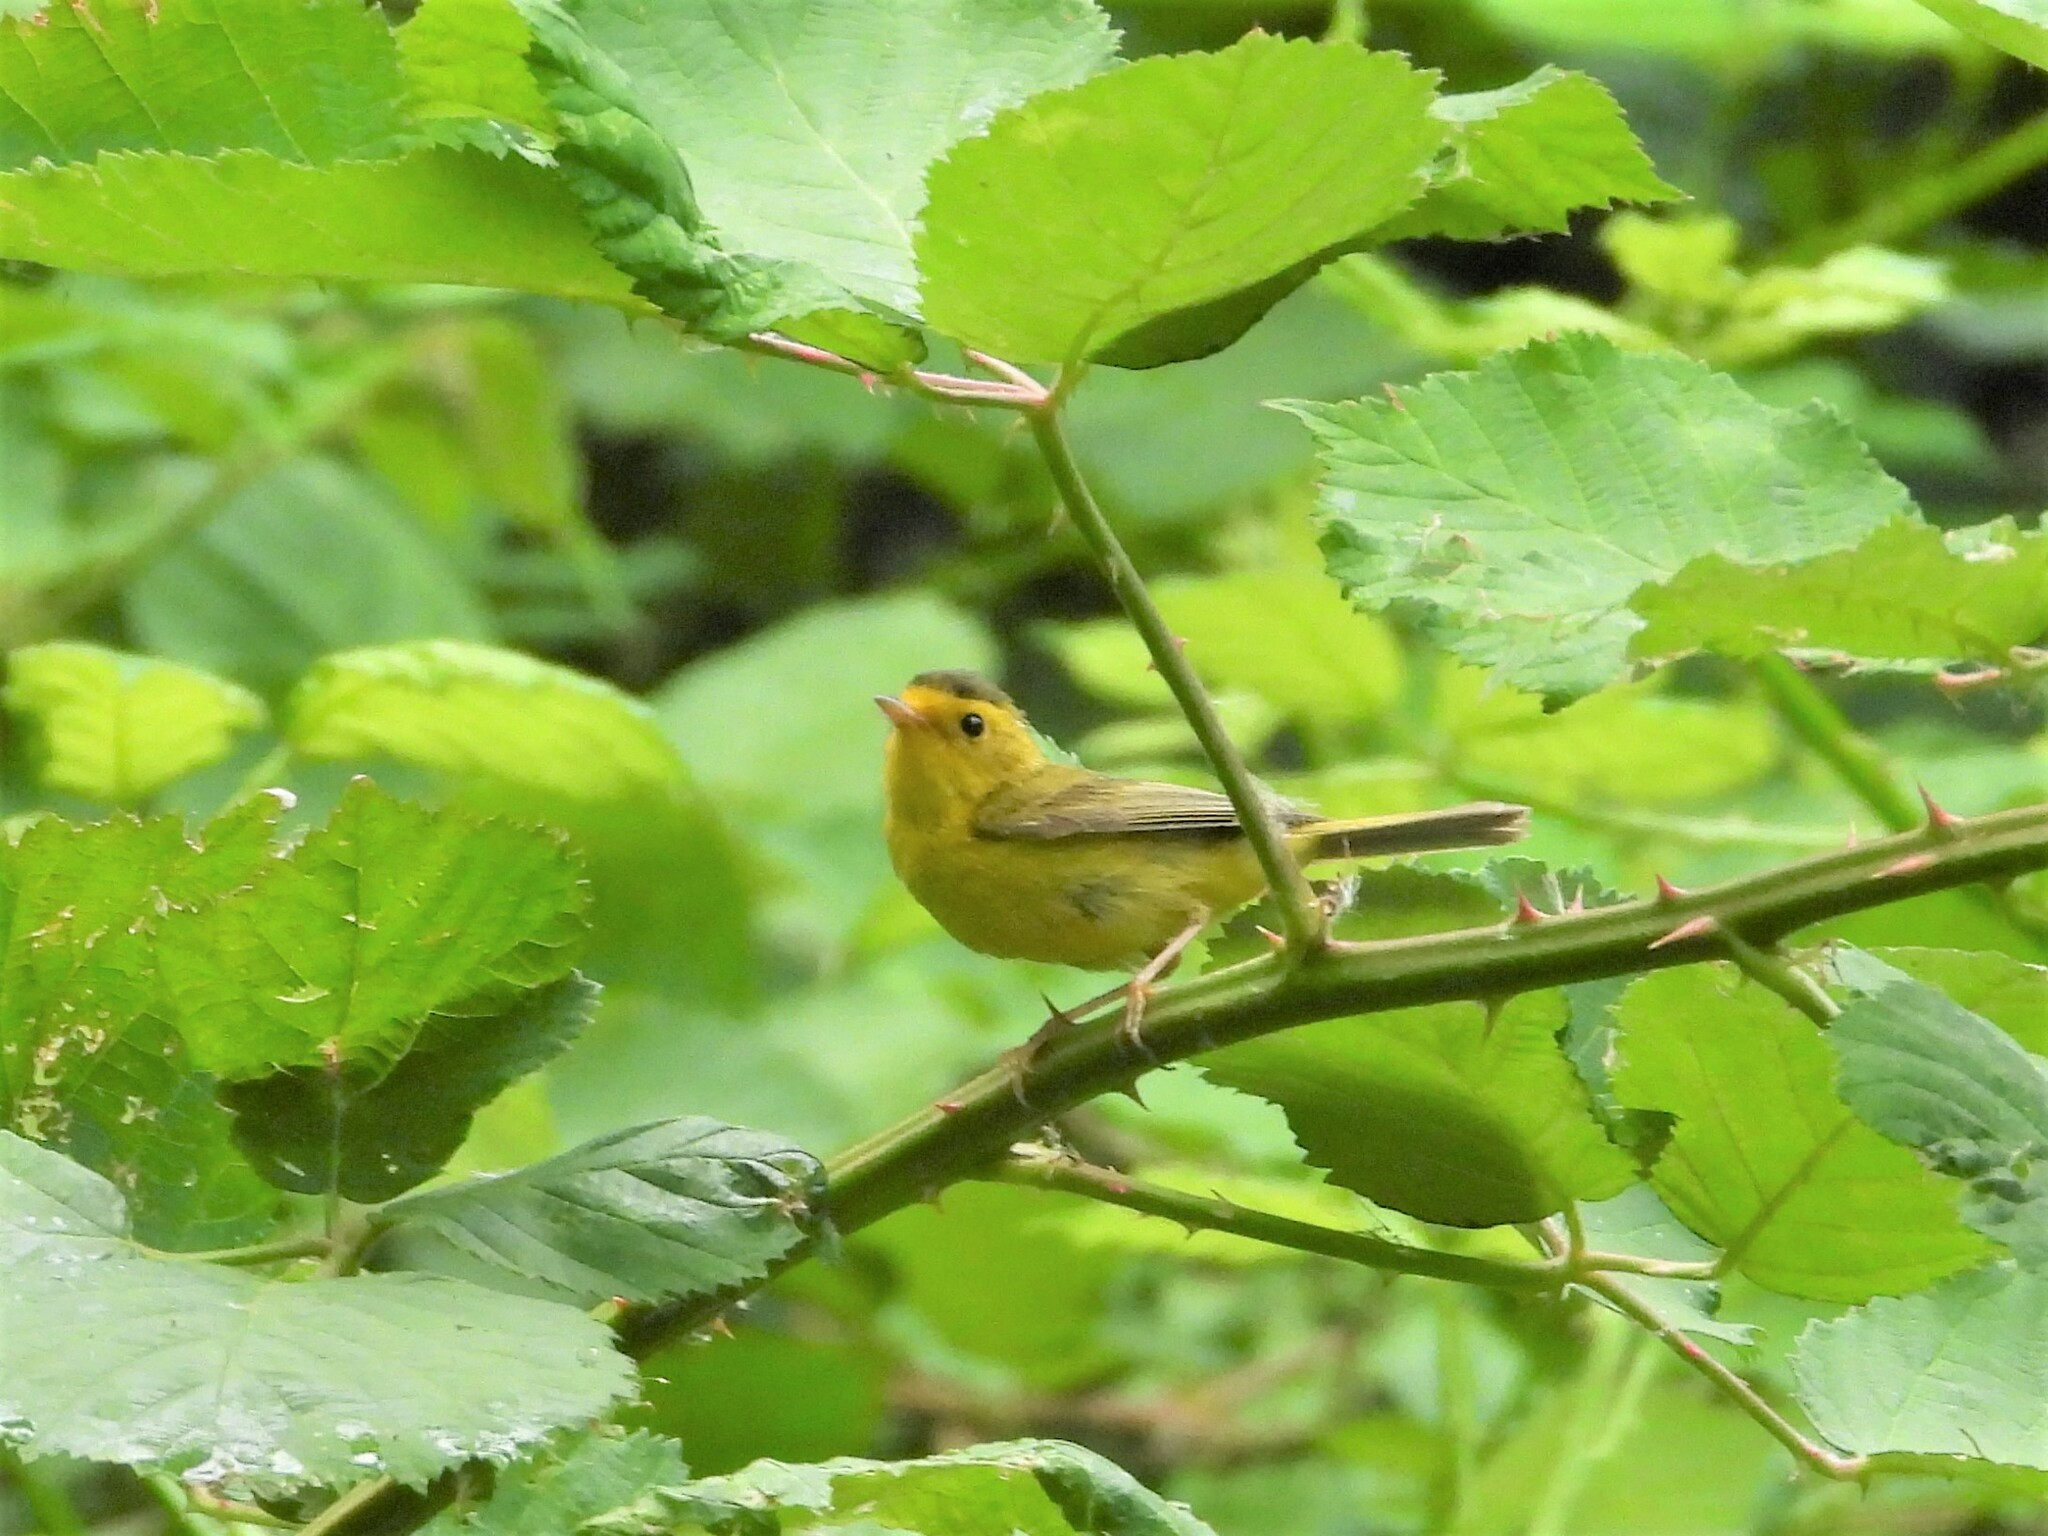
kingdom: Animalia
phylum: Chordata
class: Aves
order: Passeriformes
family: Parulidae
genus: Cardellina
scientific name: Cardellina pusilla
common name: Wilson's warbler
